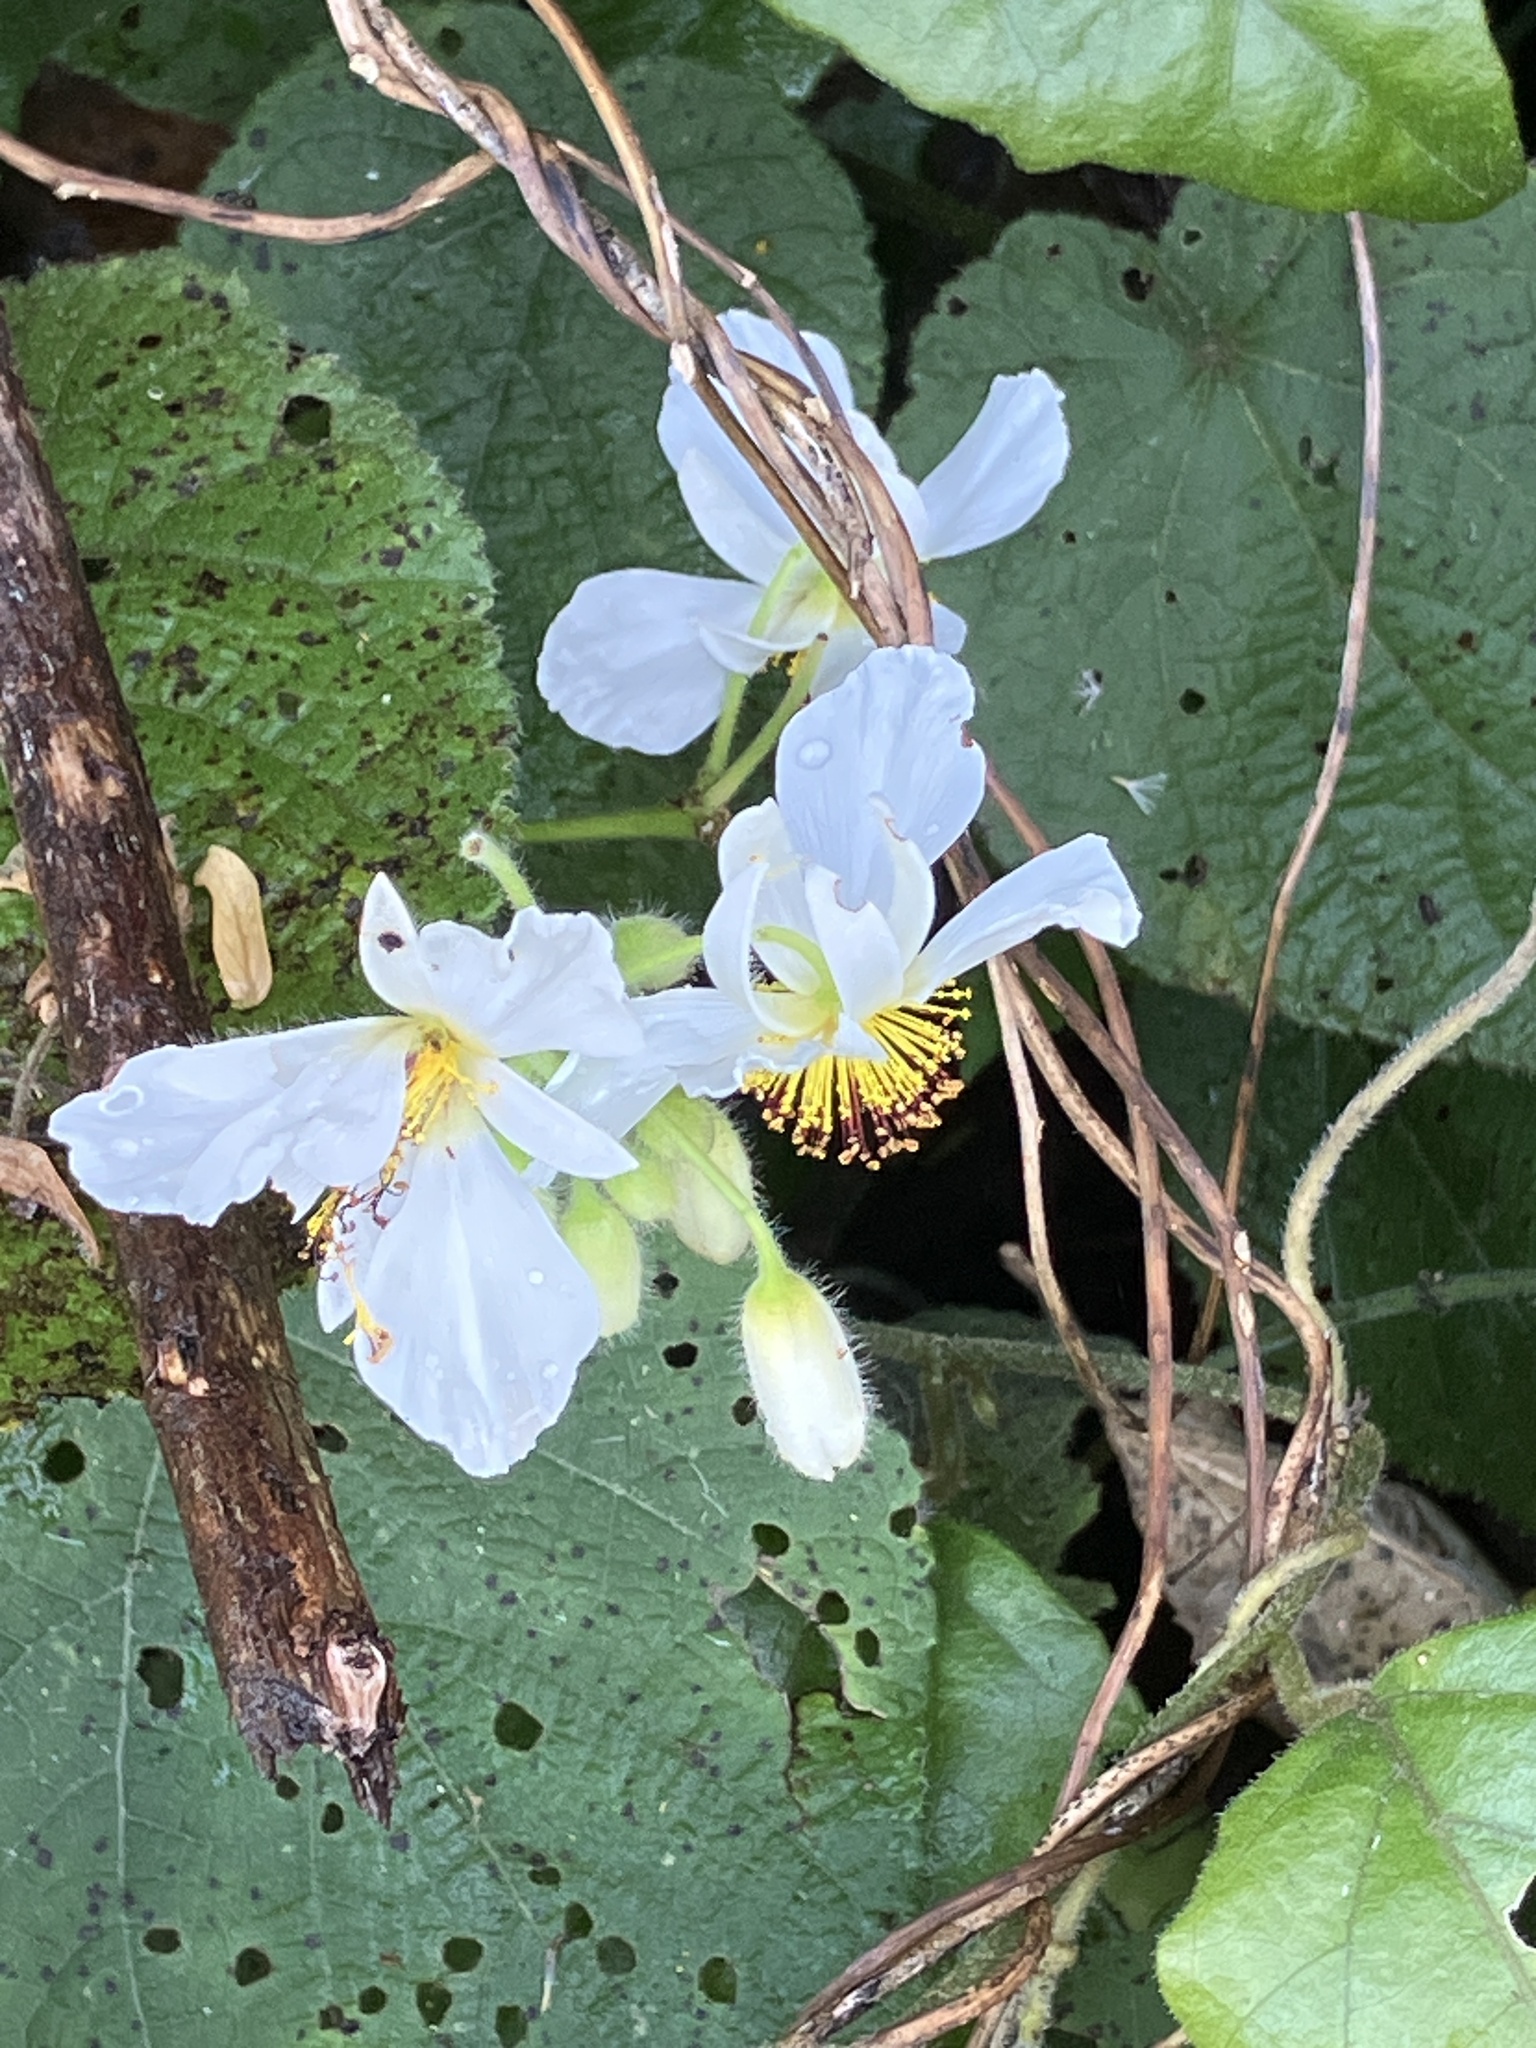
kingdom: Plantae
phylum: Tracheophyta
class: Magnoliopsida
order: Malvales
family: Malvaceae
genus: Sparrmannia
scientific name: Sparrmannia africana
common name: African-hemp
